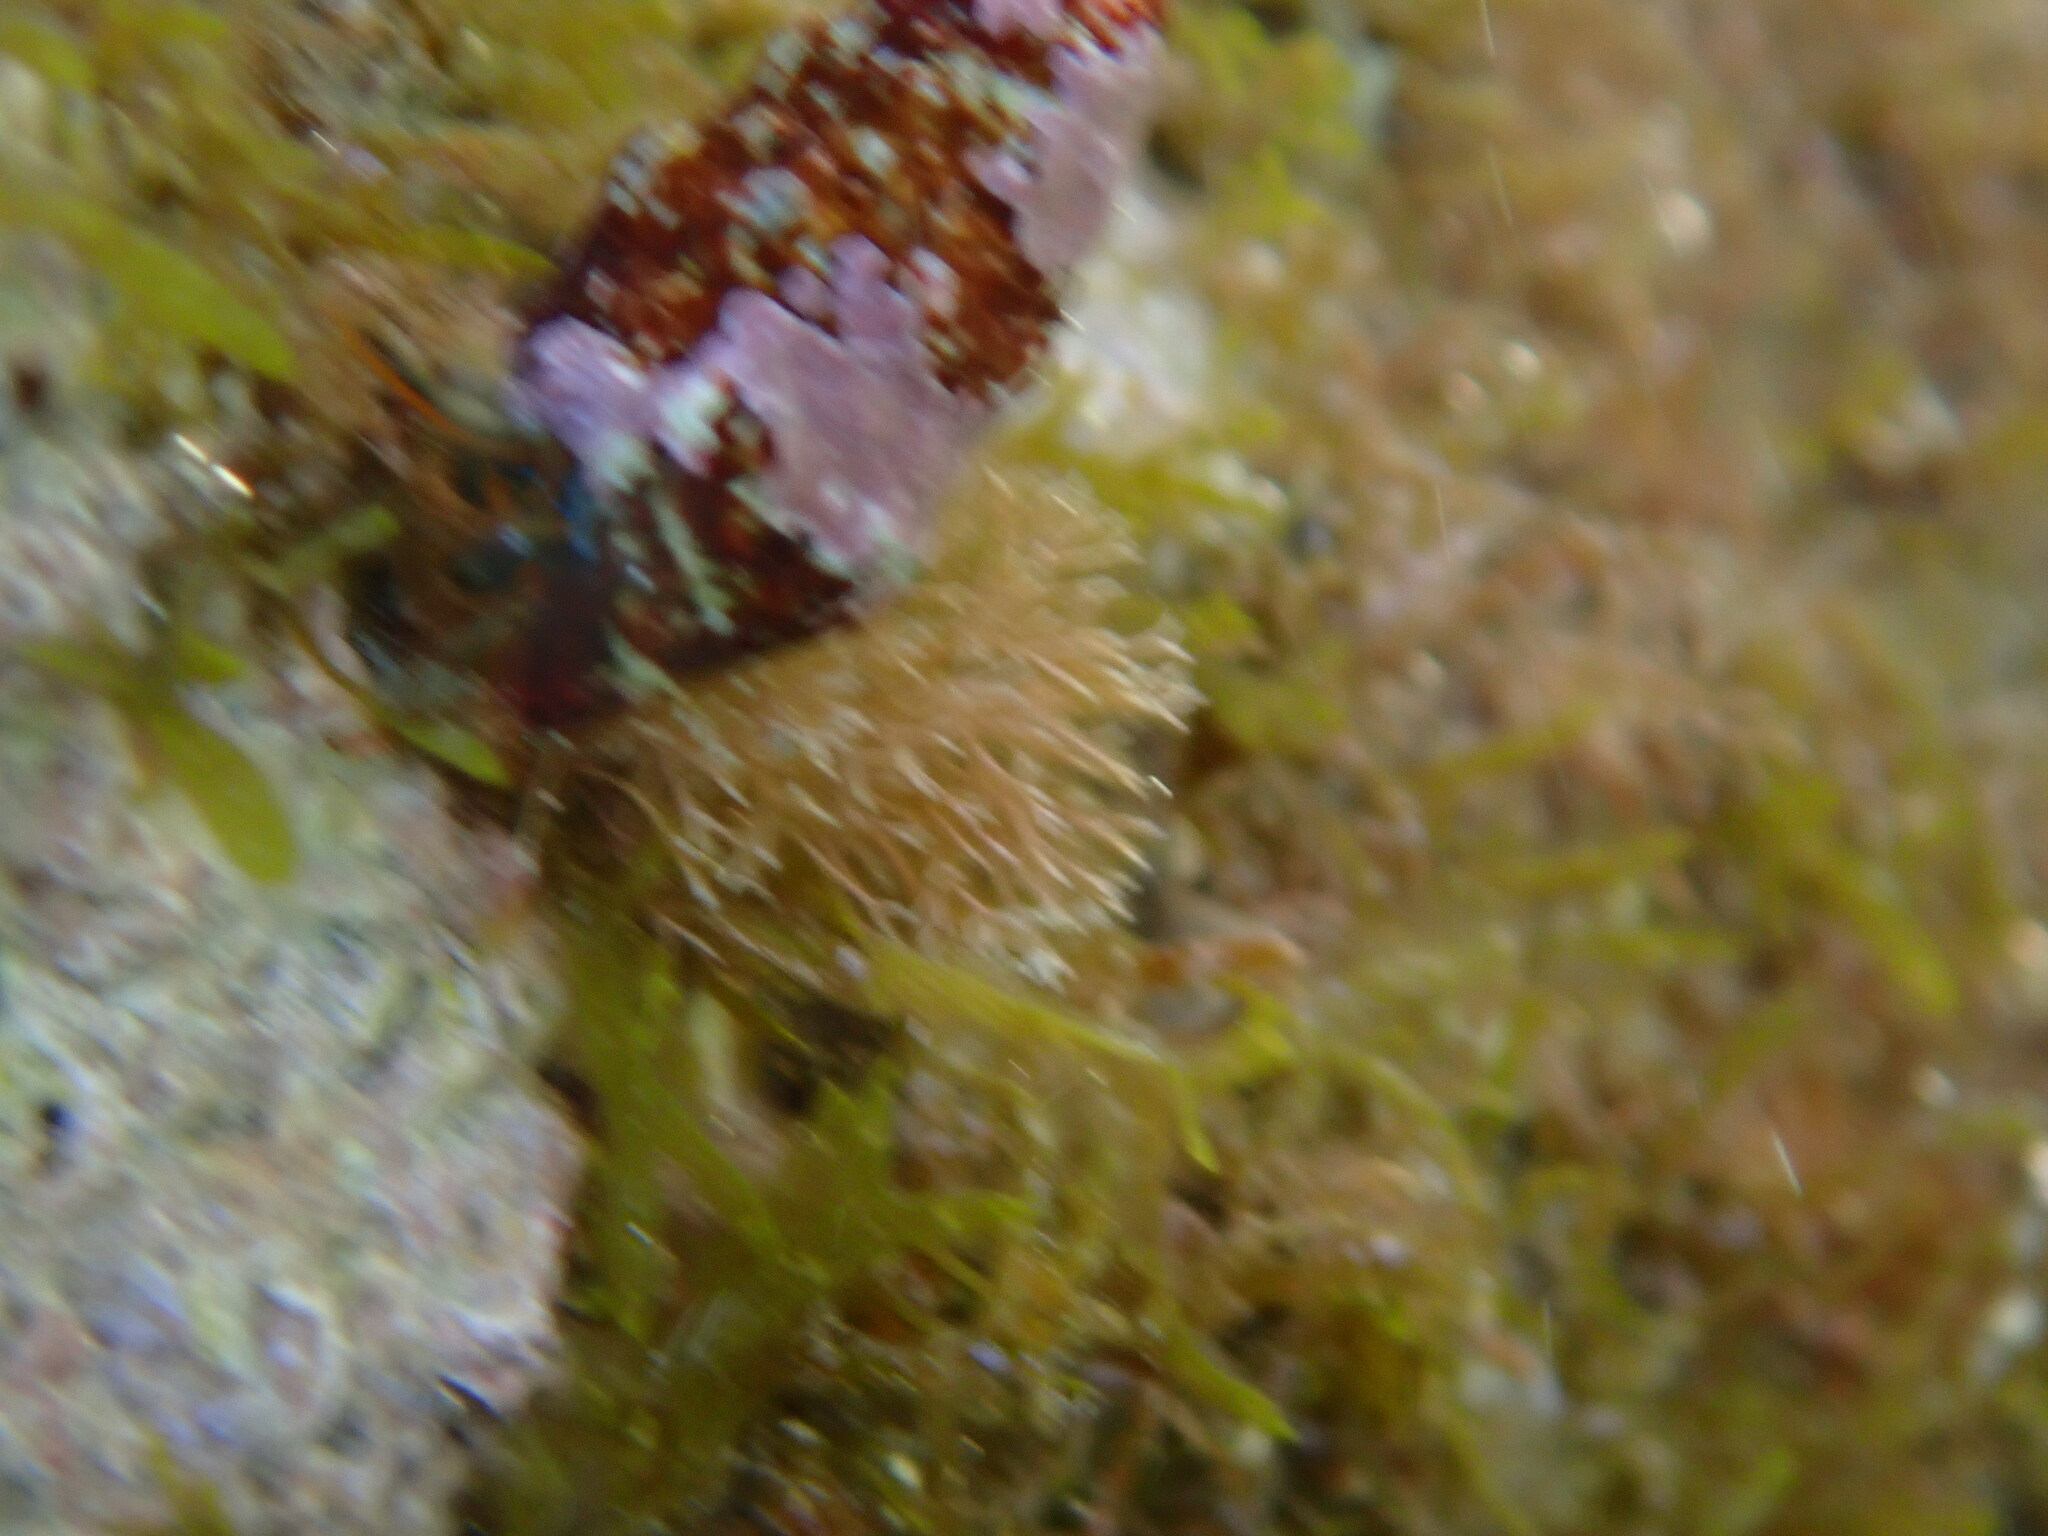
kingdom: Animalia
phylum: Arthropoda
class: Malacostraca
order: Decapoda
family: Diogenidae
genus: Clibanarius
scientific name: Clibanarius erythropus
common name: Hermit crab
